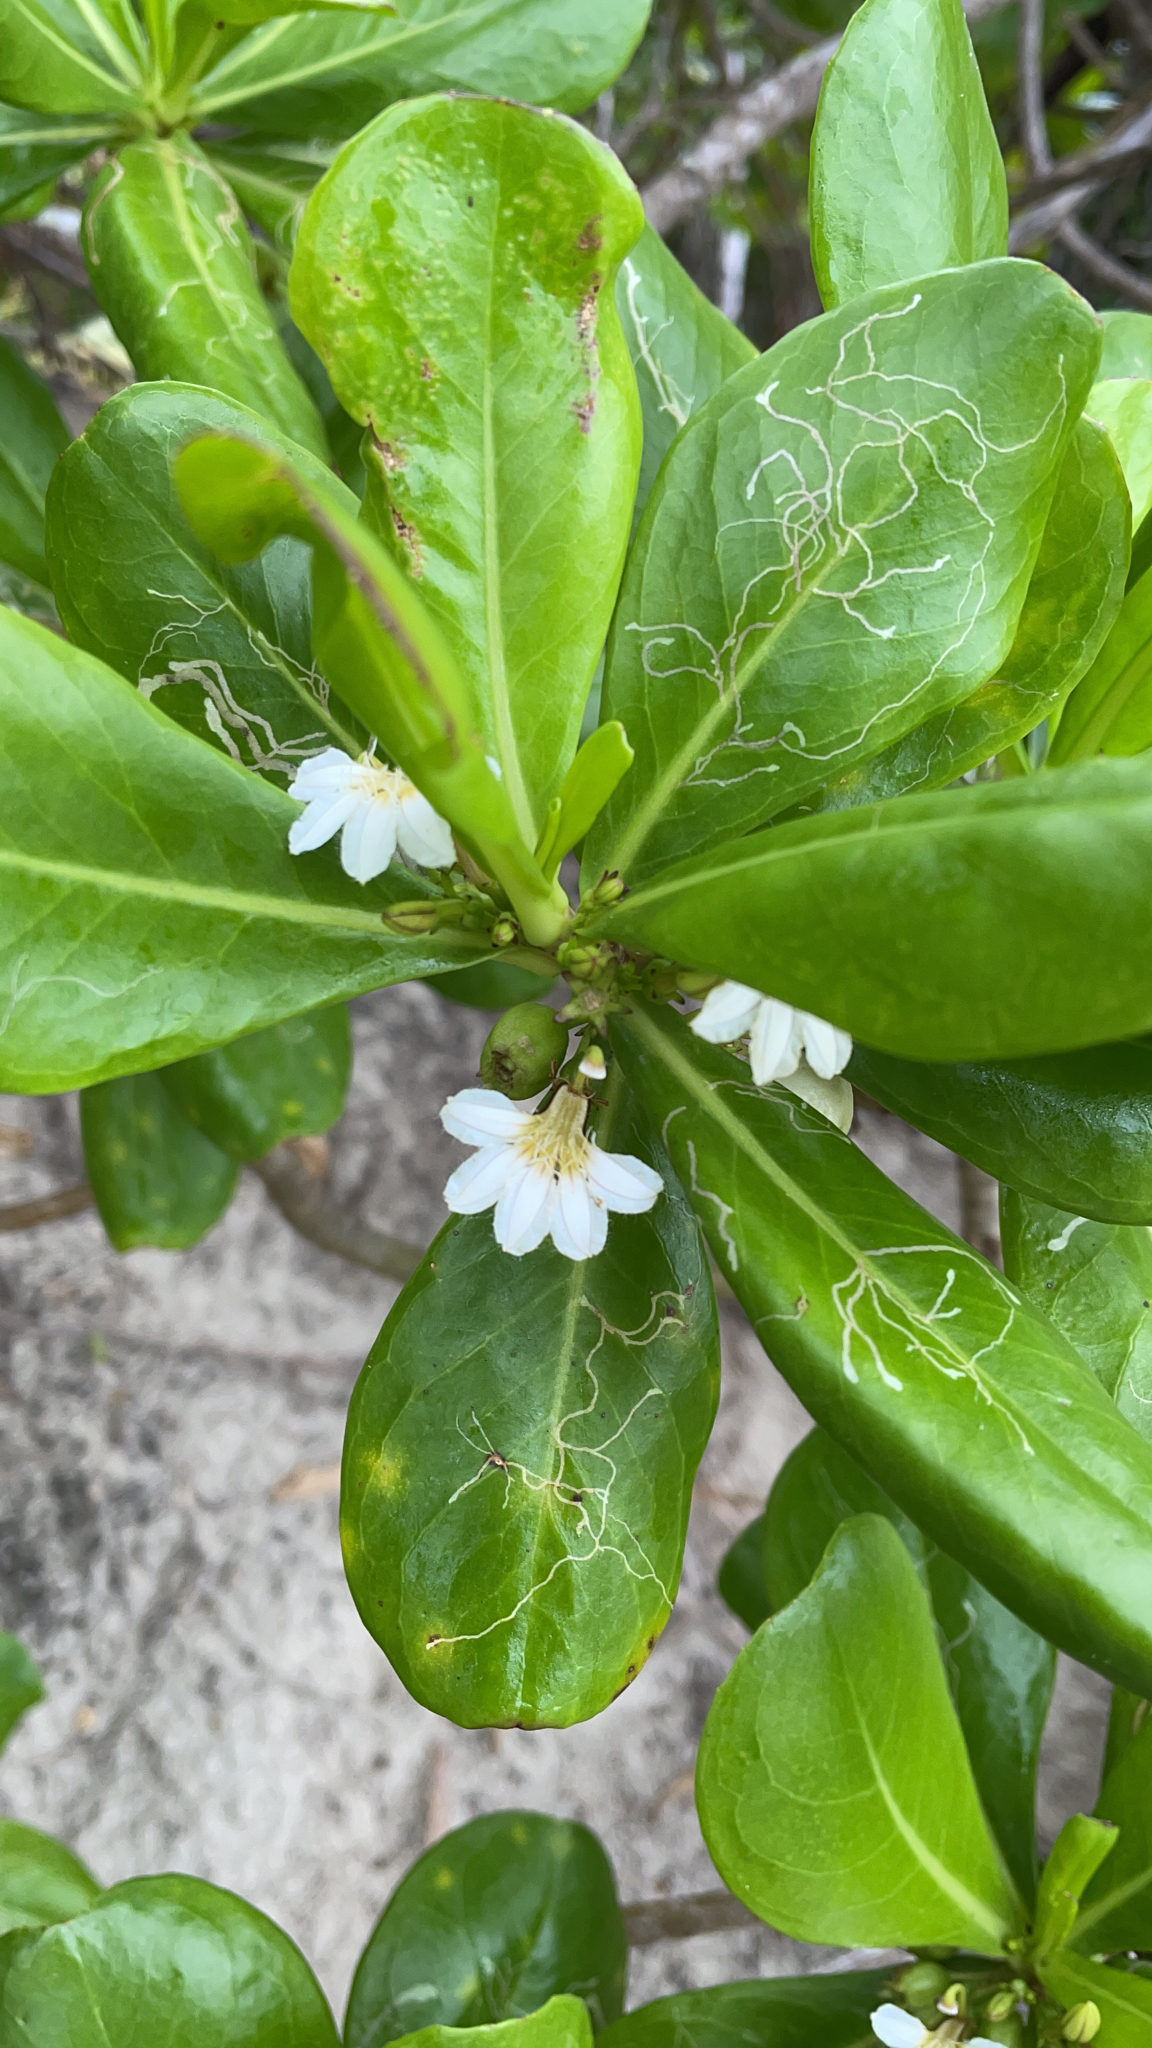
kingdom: Plantae
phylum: Tracheophyta
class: Magnoliopsida
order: Asterales
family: Goodeniaceae
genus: Scaevola
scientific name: Scaevola taccada
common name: Sea lettucetree
